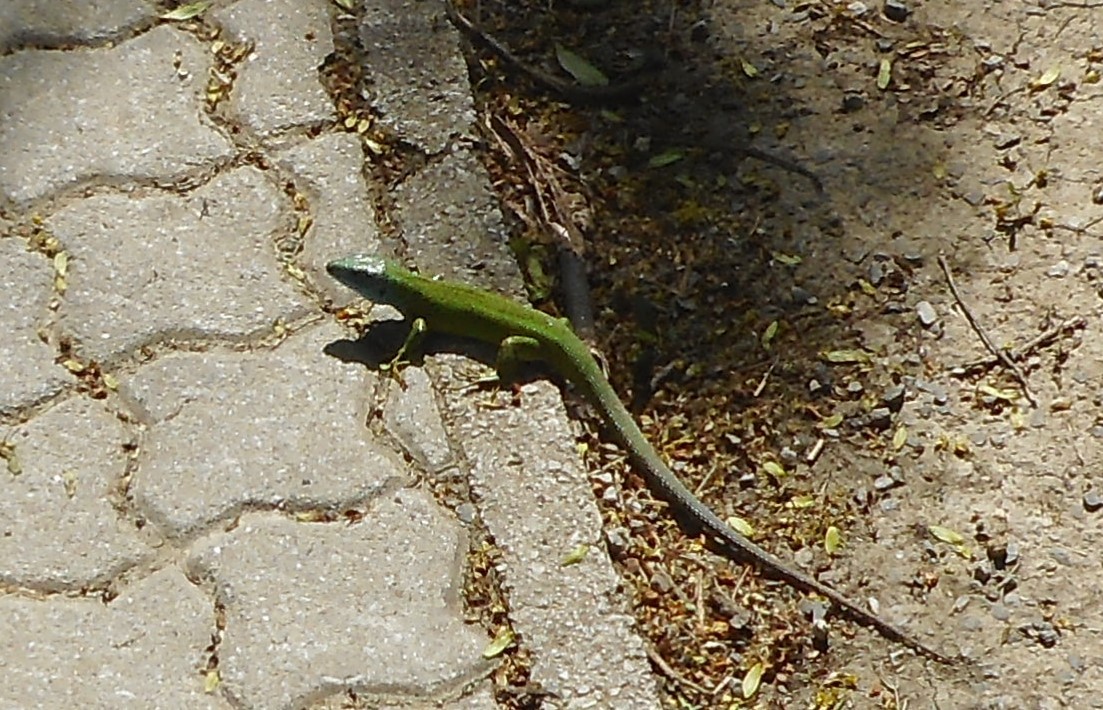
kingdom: Animalia
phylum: Chordata
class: Squamata
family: Lacertidae
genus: Lacerta
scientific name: Lacerta viridis
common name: European green lizard
